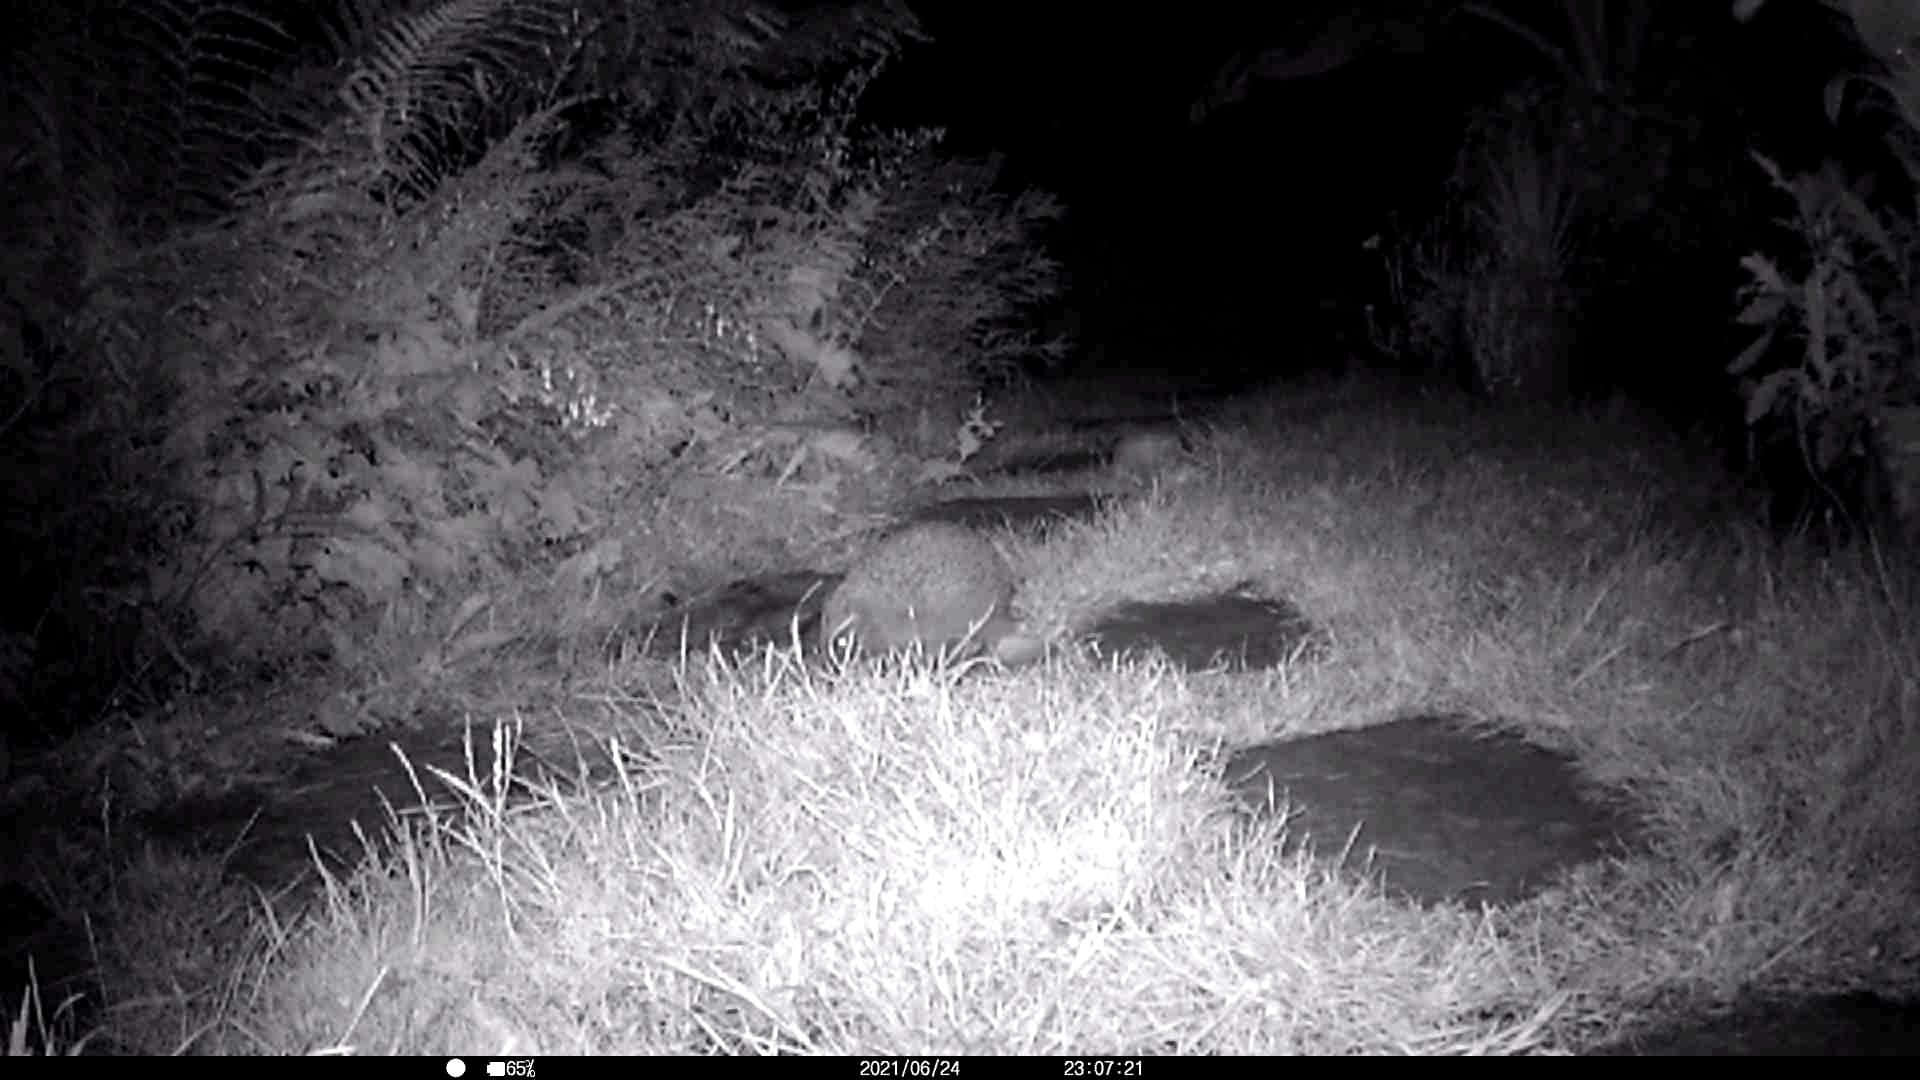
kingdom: Animalia
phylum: Chordata
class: Mammalia
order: Erinaceomorpha
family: Erinaceidae
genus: Erinaceus
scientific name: Erinaceus europaeus
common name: West european hedgehog
